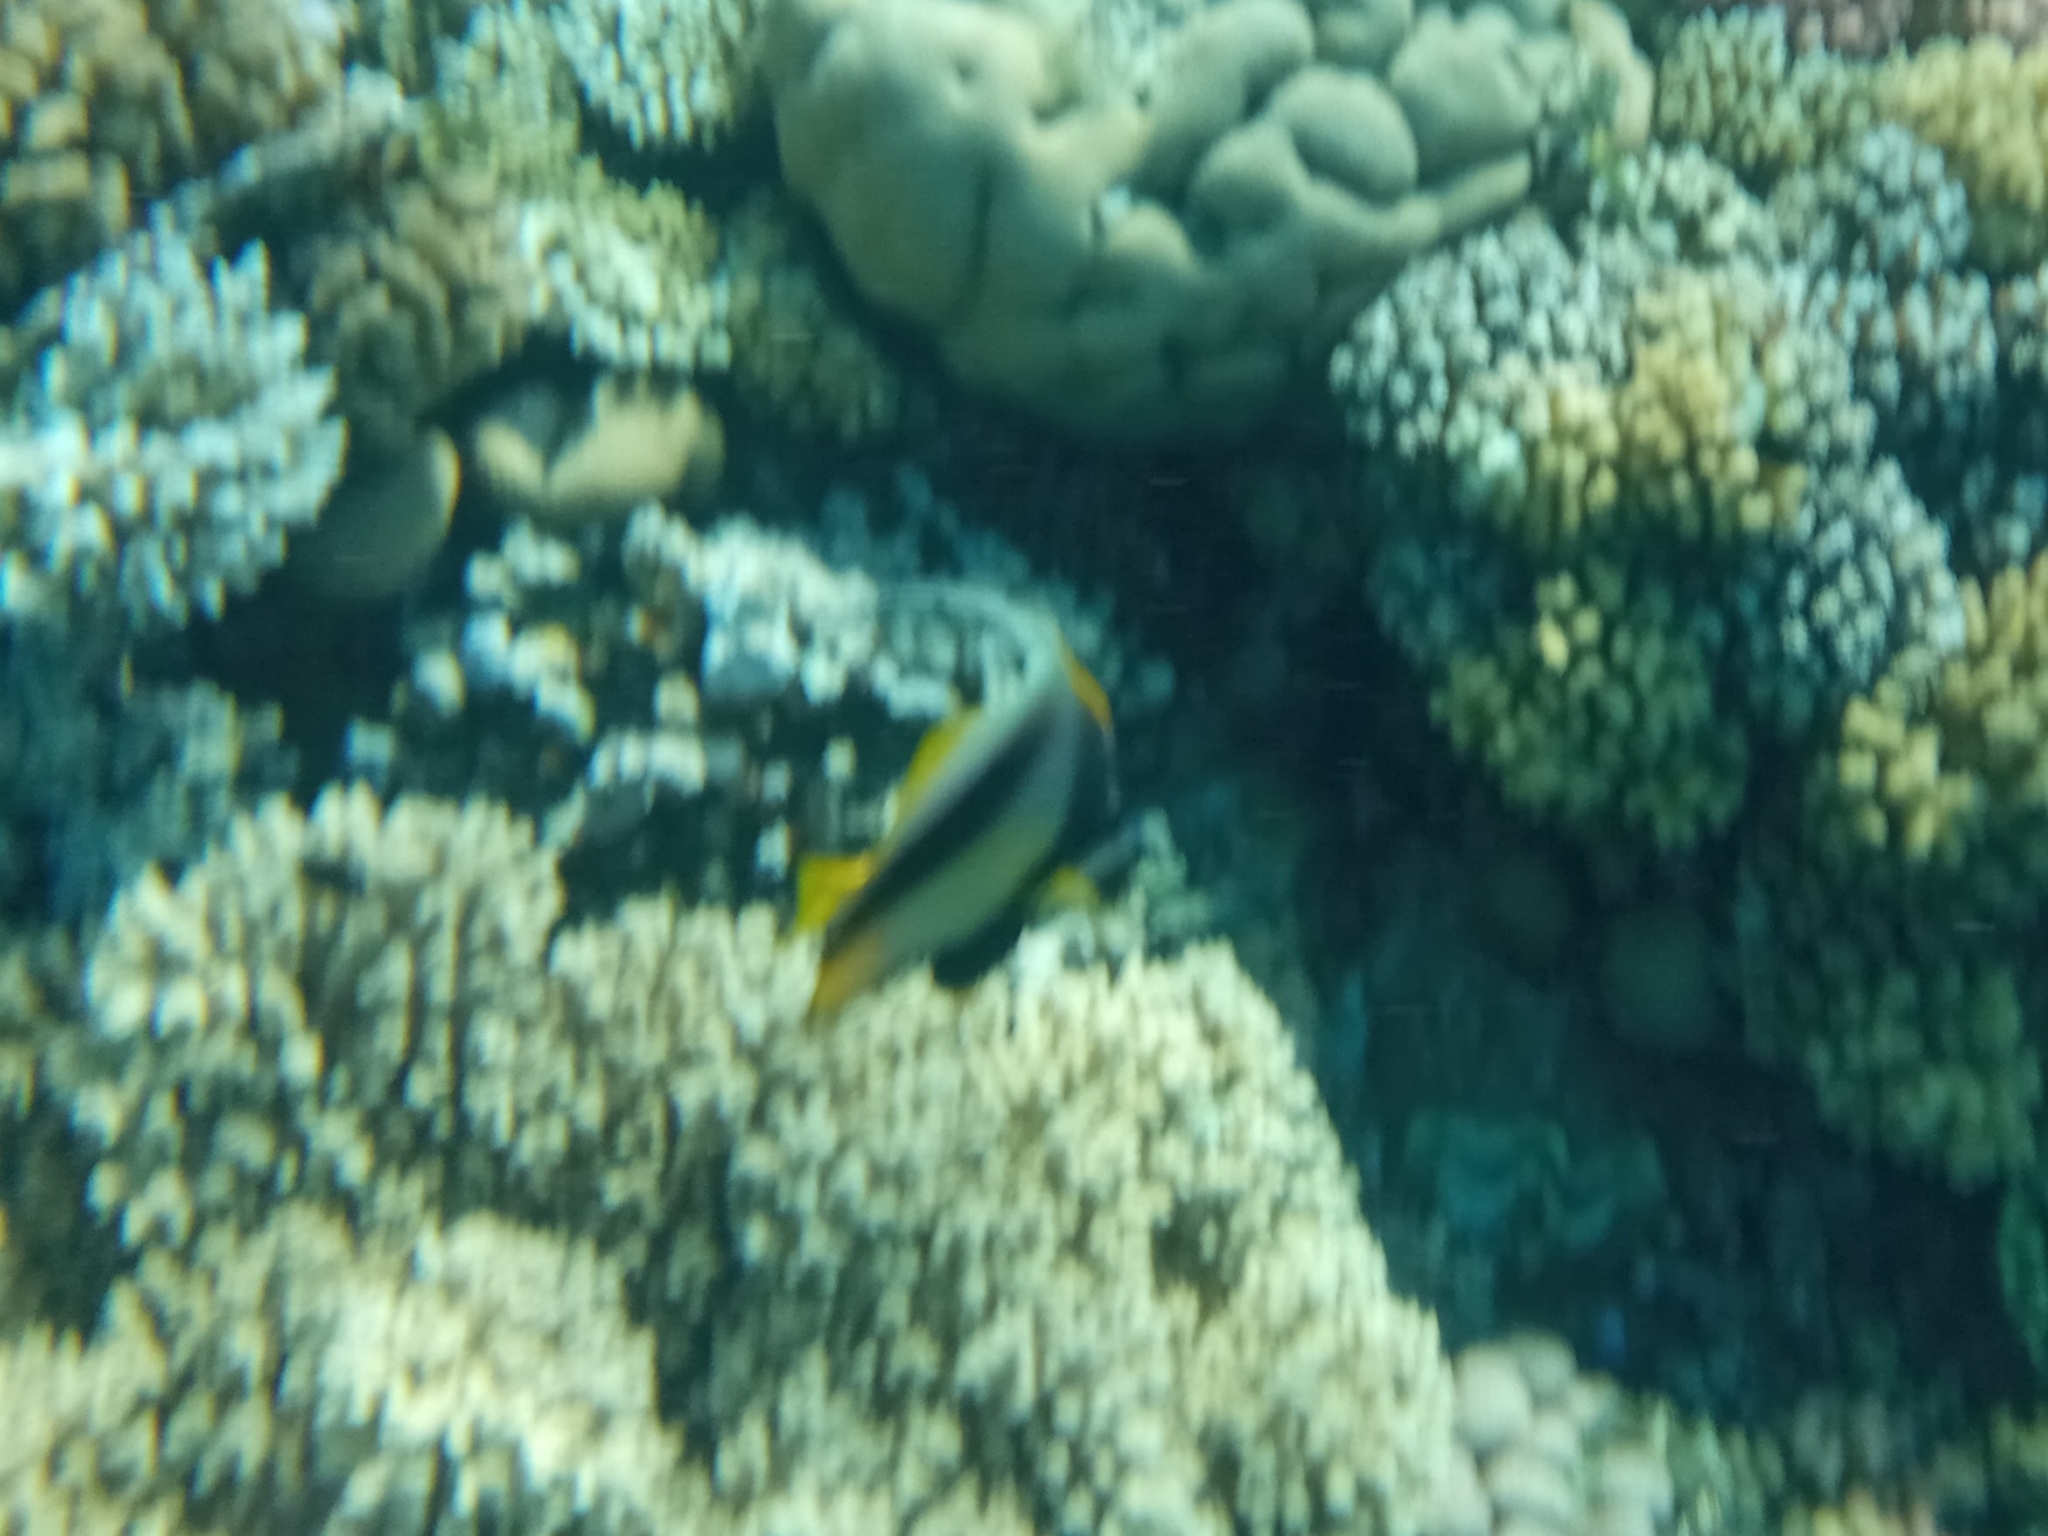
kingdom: Animalia
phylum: Chordata
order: Perciformes
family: Chaetodontidae
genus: Heniochus
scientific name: Heniochus intermedius
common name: Red sea bannerfish
